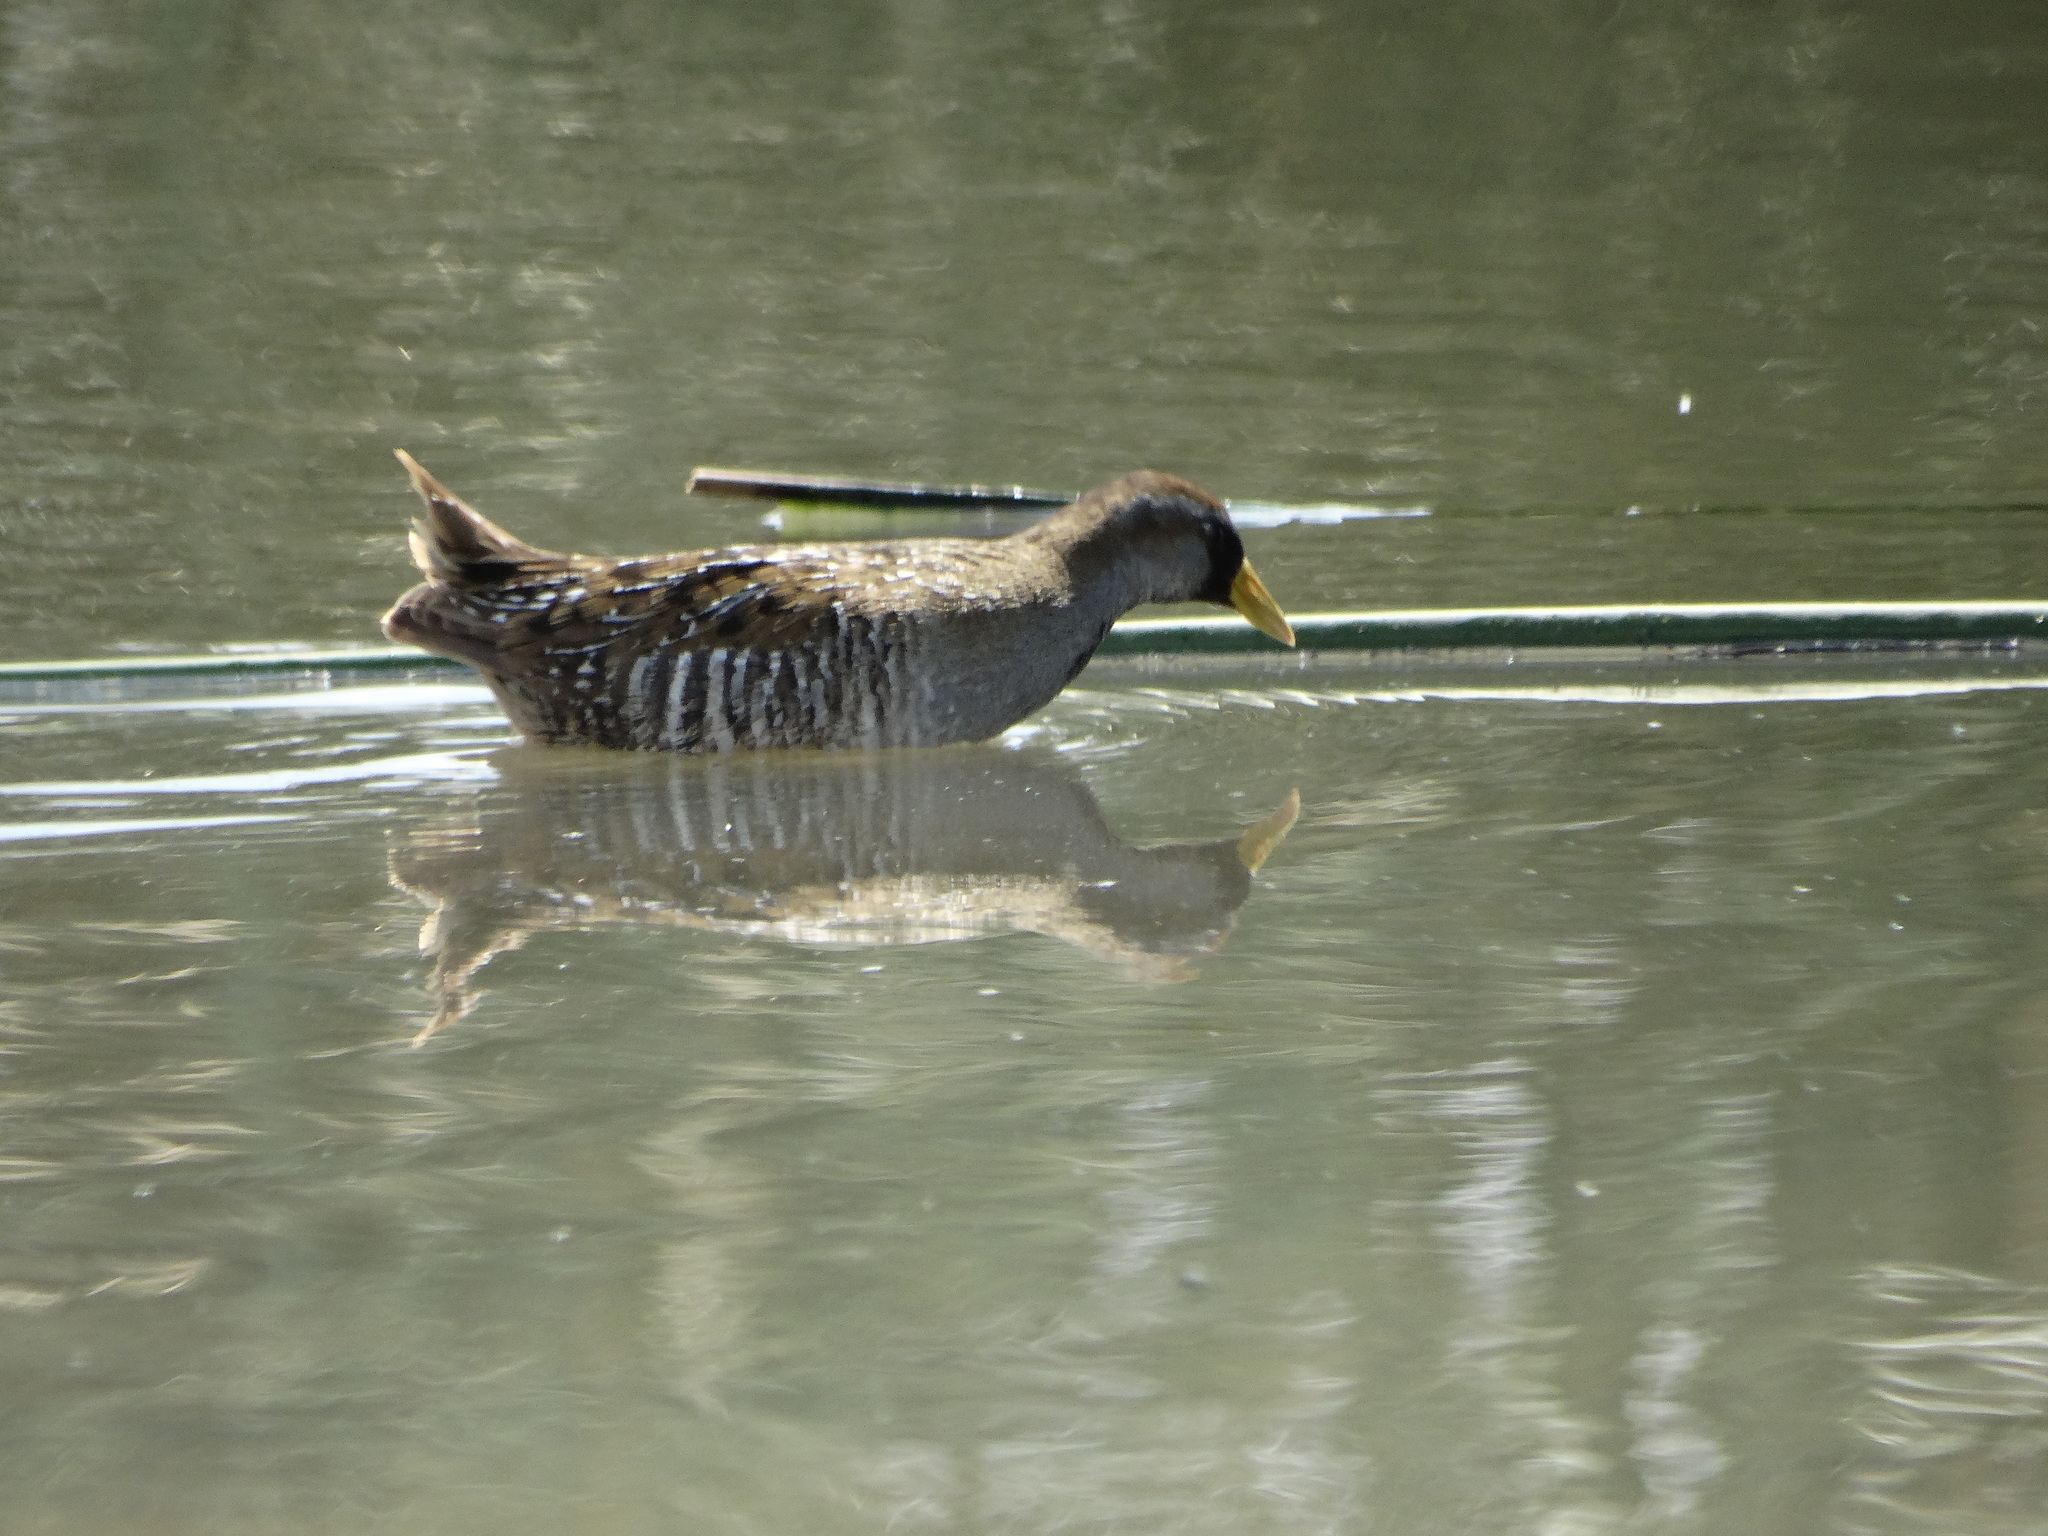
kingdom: Animalia
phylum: Chordata
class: Aves
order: Gruiformes
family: Rallidae
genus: Porzana
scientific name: Porzana carolina
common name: Sora
